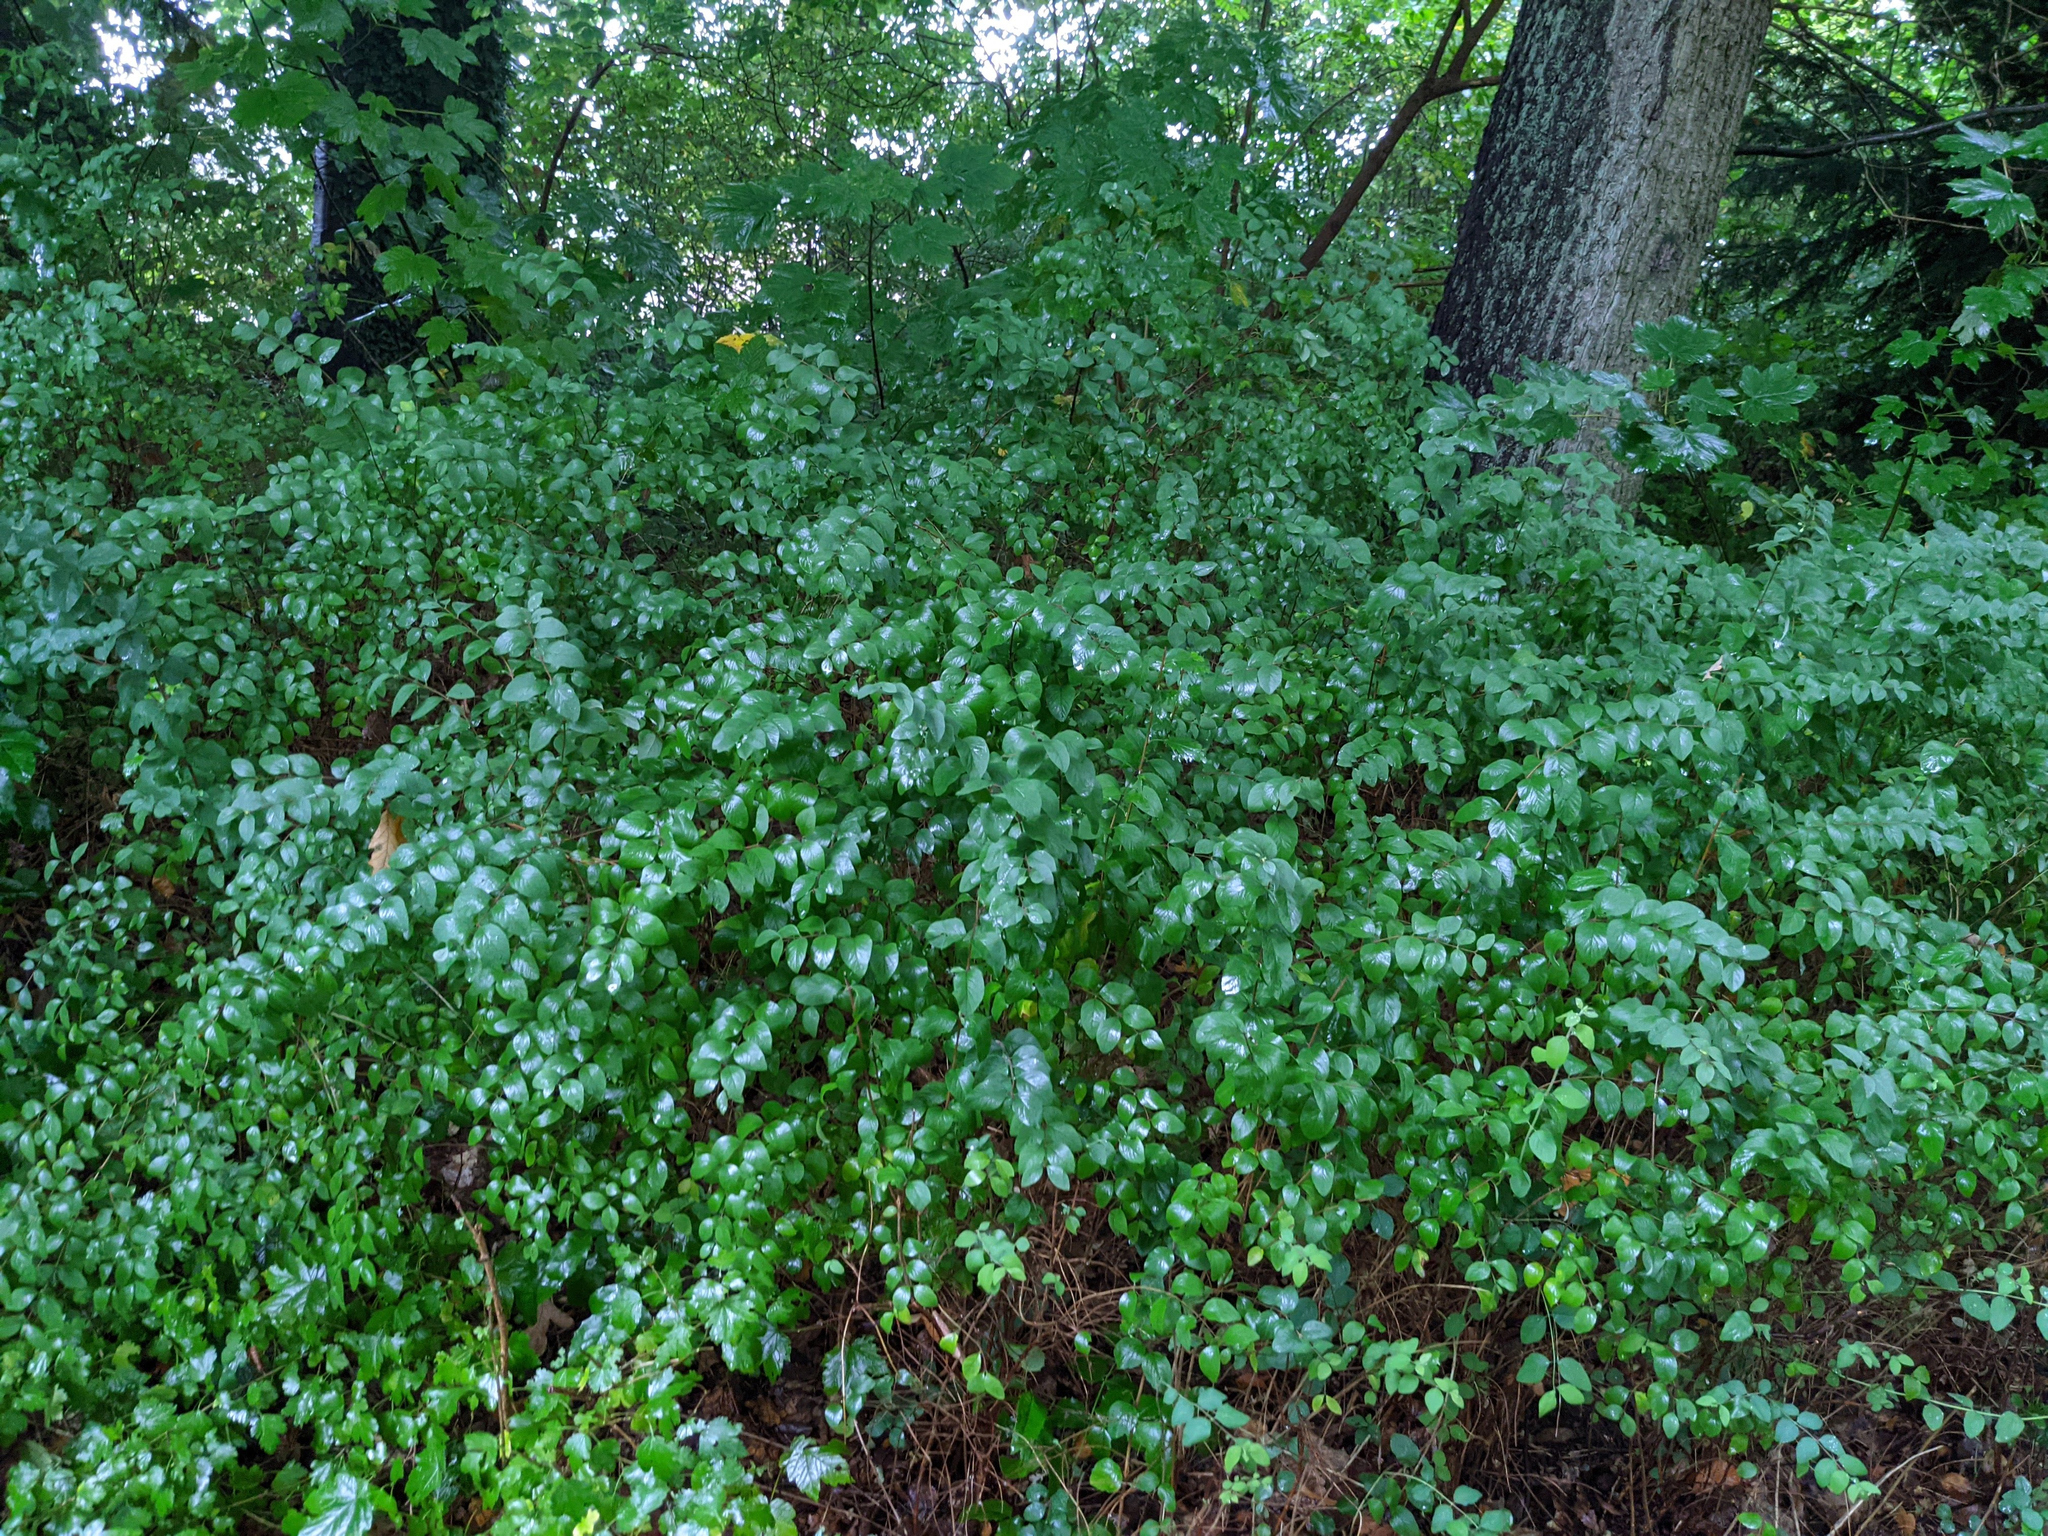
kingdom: Plantae
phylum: Tracheophyta
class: Magnoliopsida
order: Dipsacales
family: Caprifoliaceae
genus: Symphoricarpos
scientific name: Symphoricarpos albus
